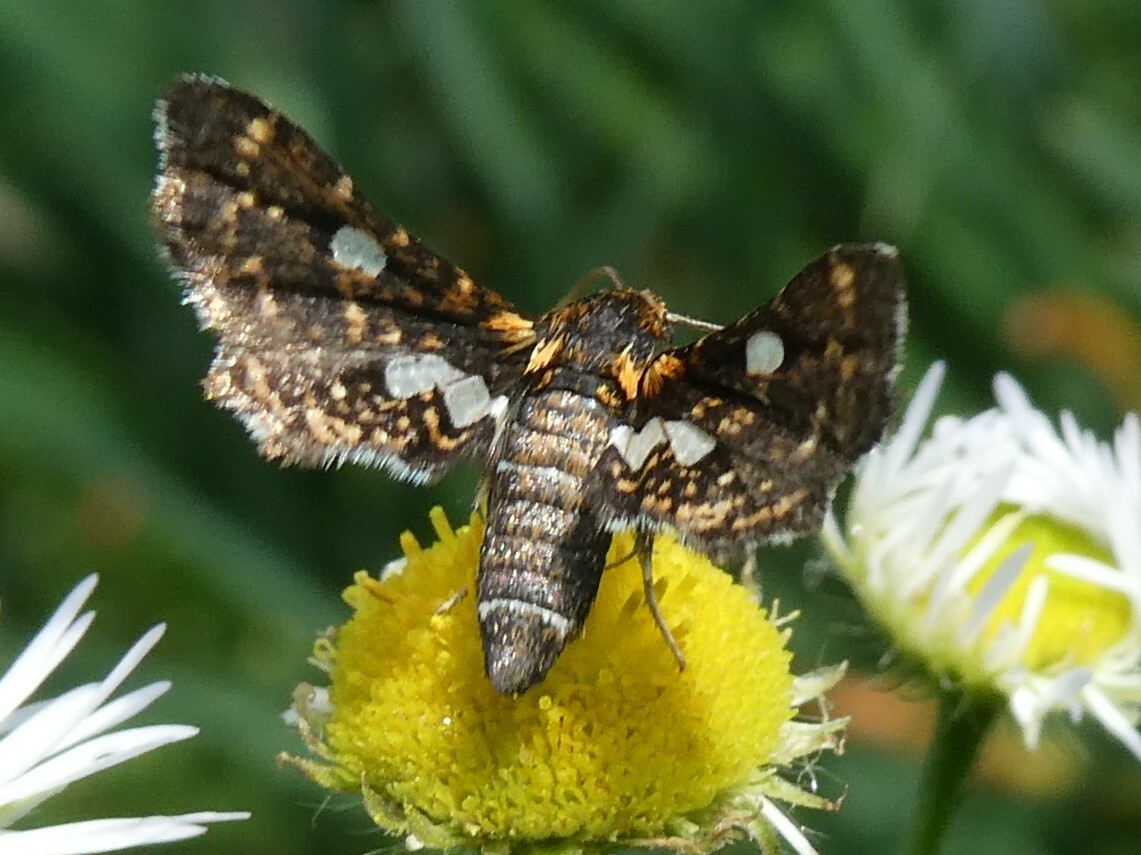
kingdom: Animalia
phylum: Arthropoda
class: Insecta
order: Lepidoptera
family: Thyrididae
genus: Thyris
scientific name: Thyris maculata
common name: Spotted thyris moth
